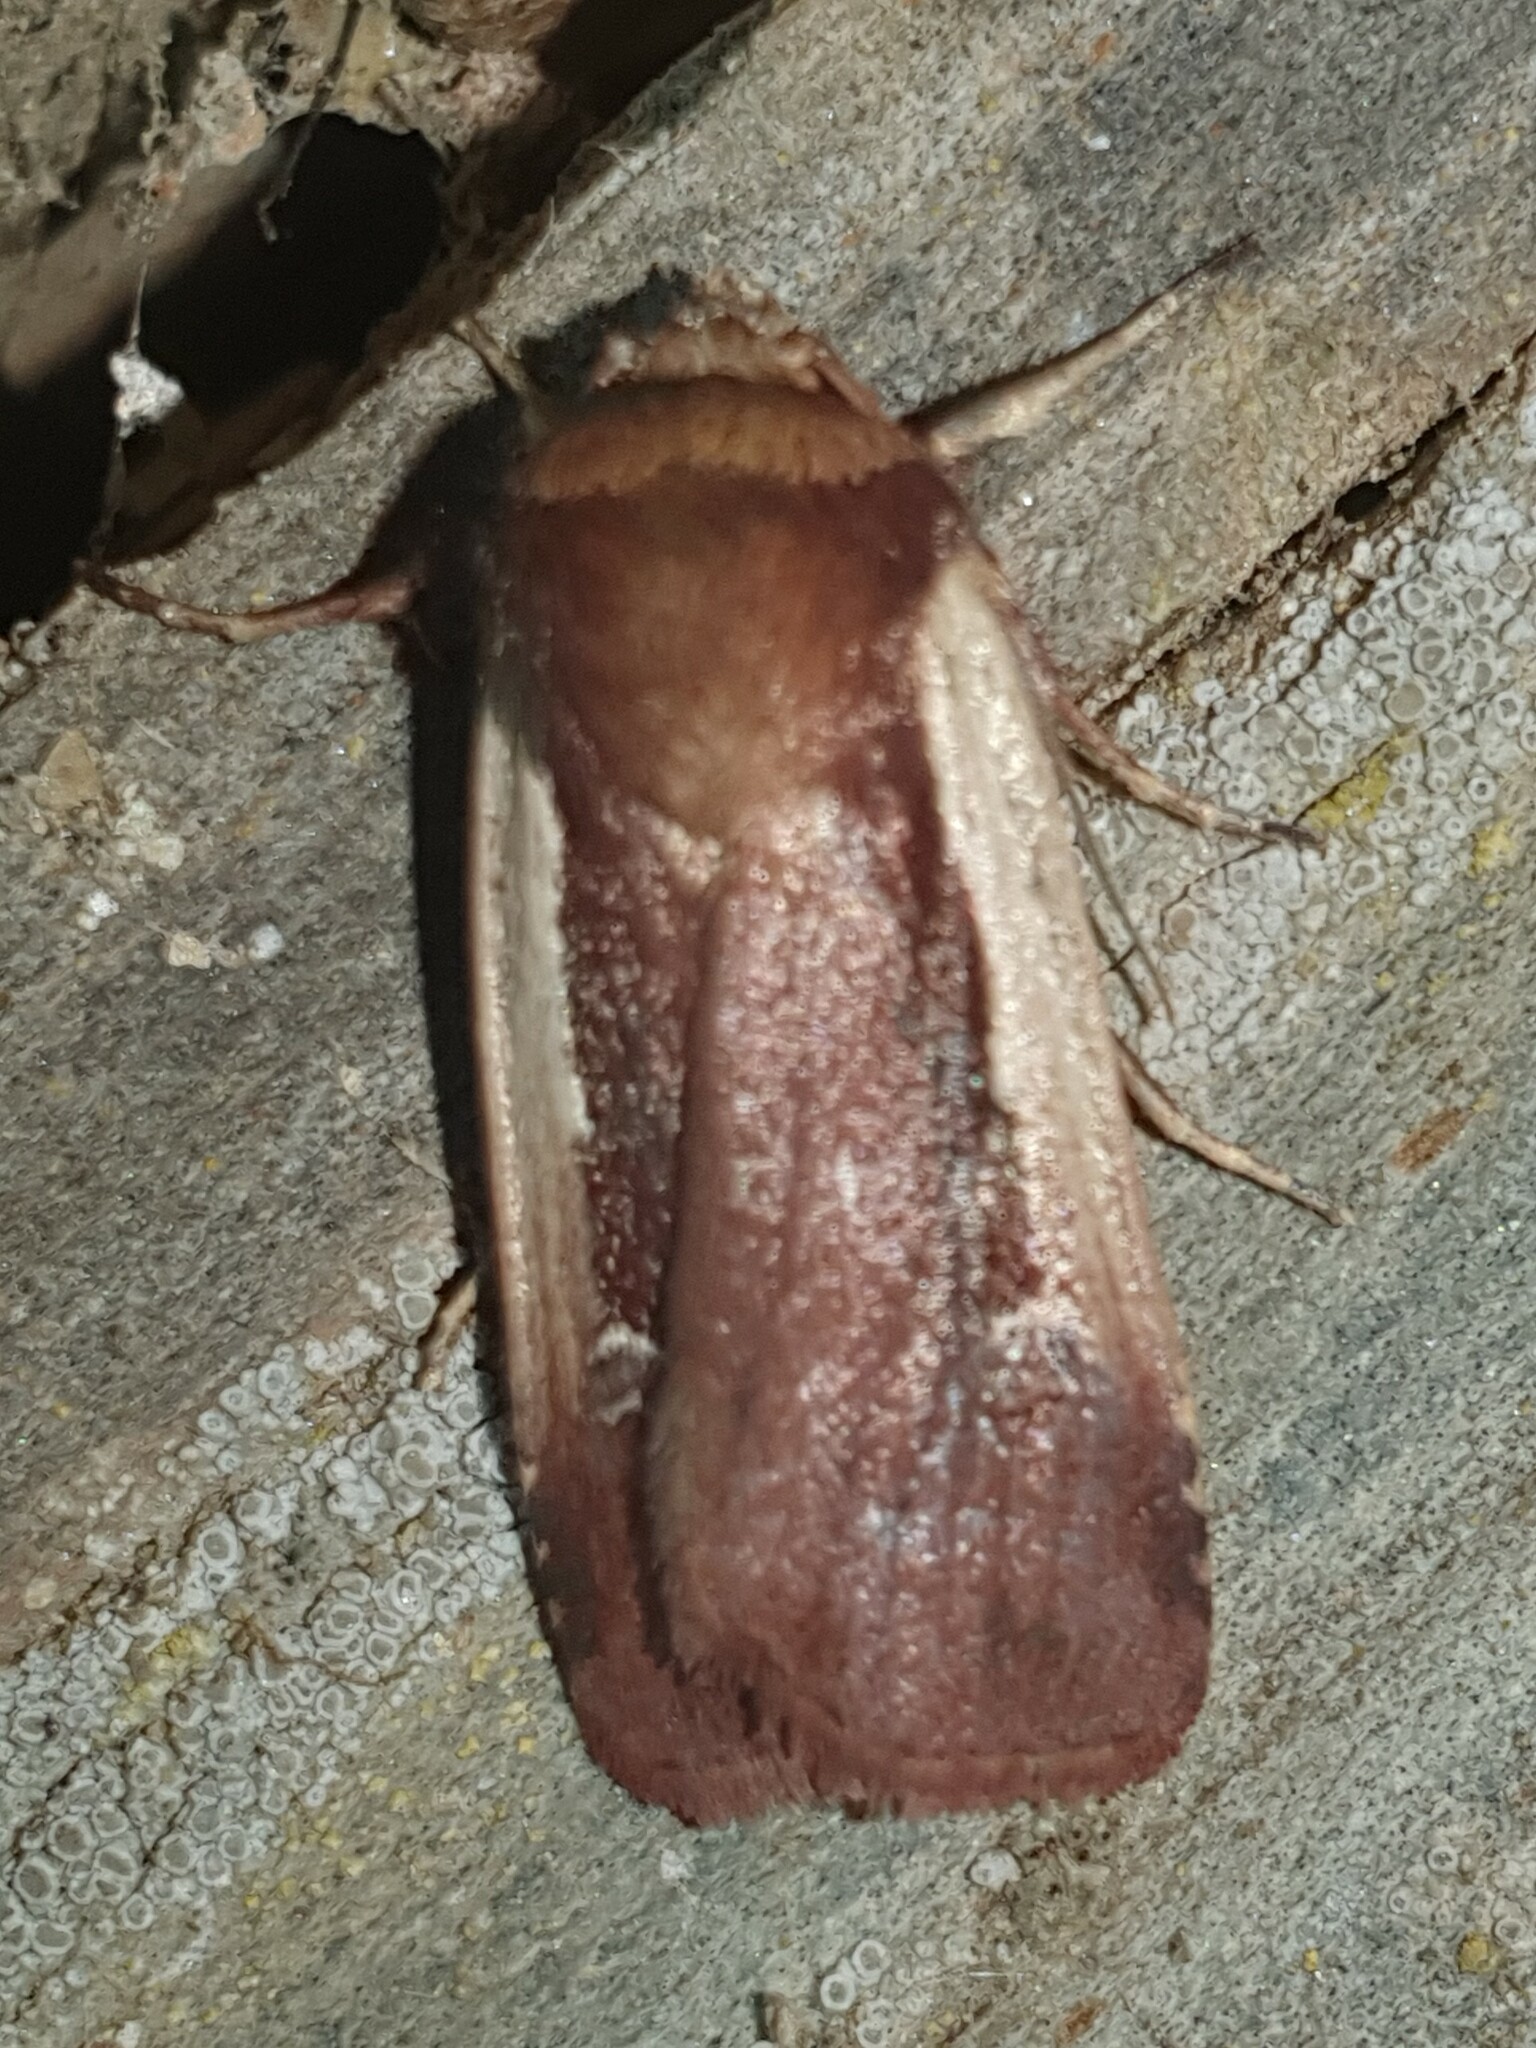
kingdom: Animalia
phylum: Arthropoda
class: Insecta
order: Lepidoptera
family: Noctuidae
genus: Ochropleura
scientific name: Ochropleura plecta
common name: Flame shoulder
